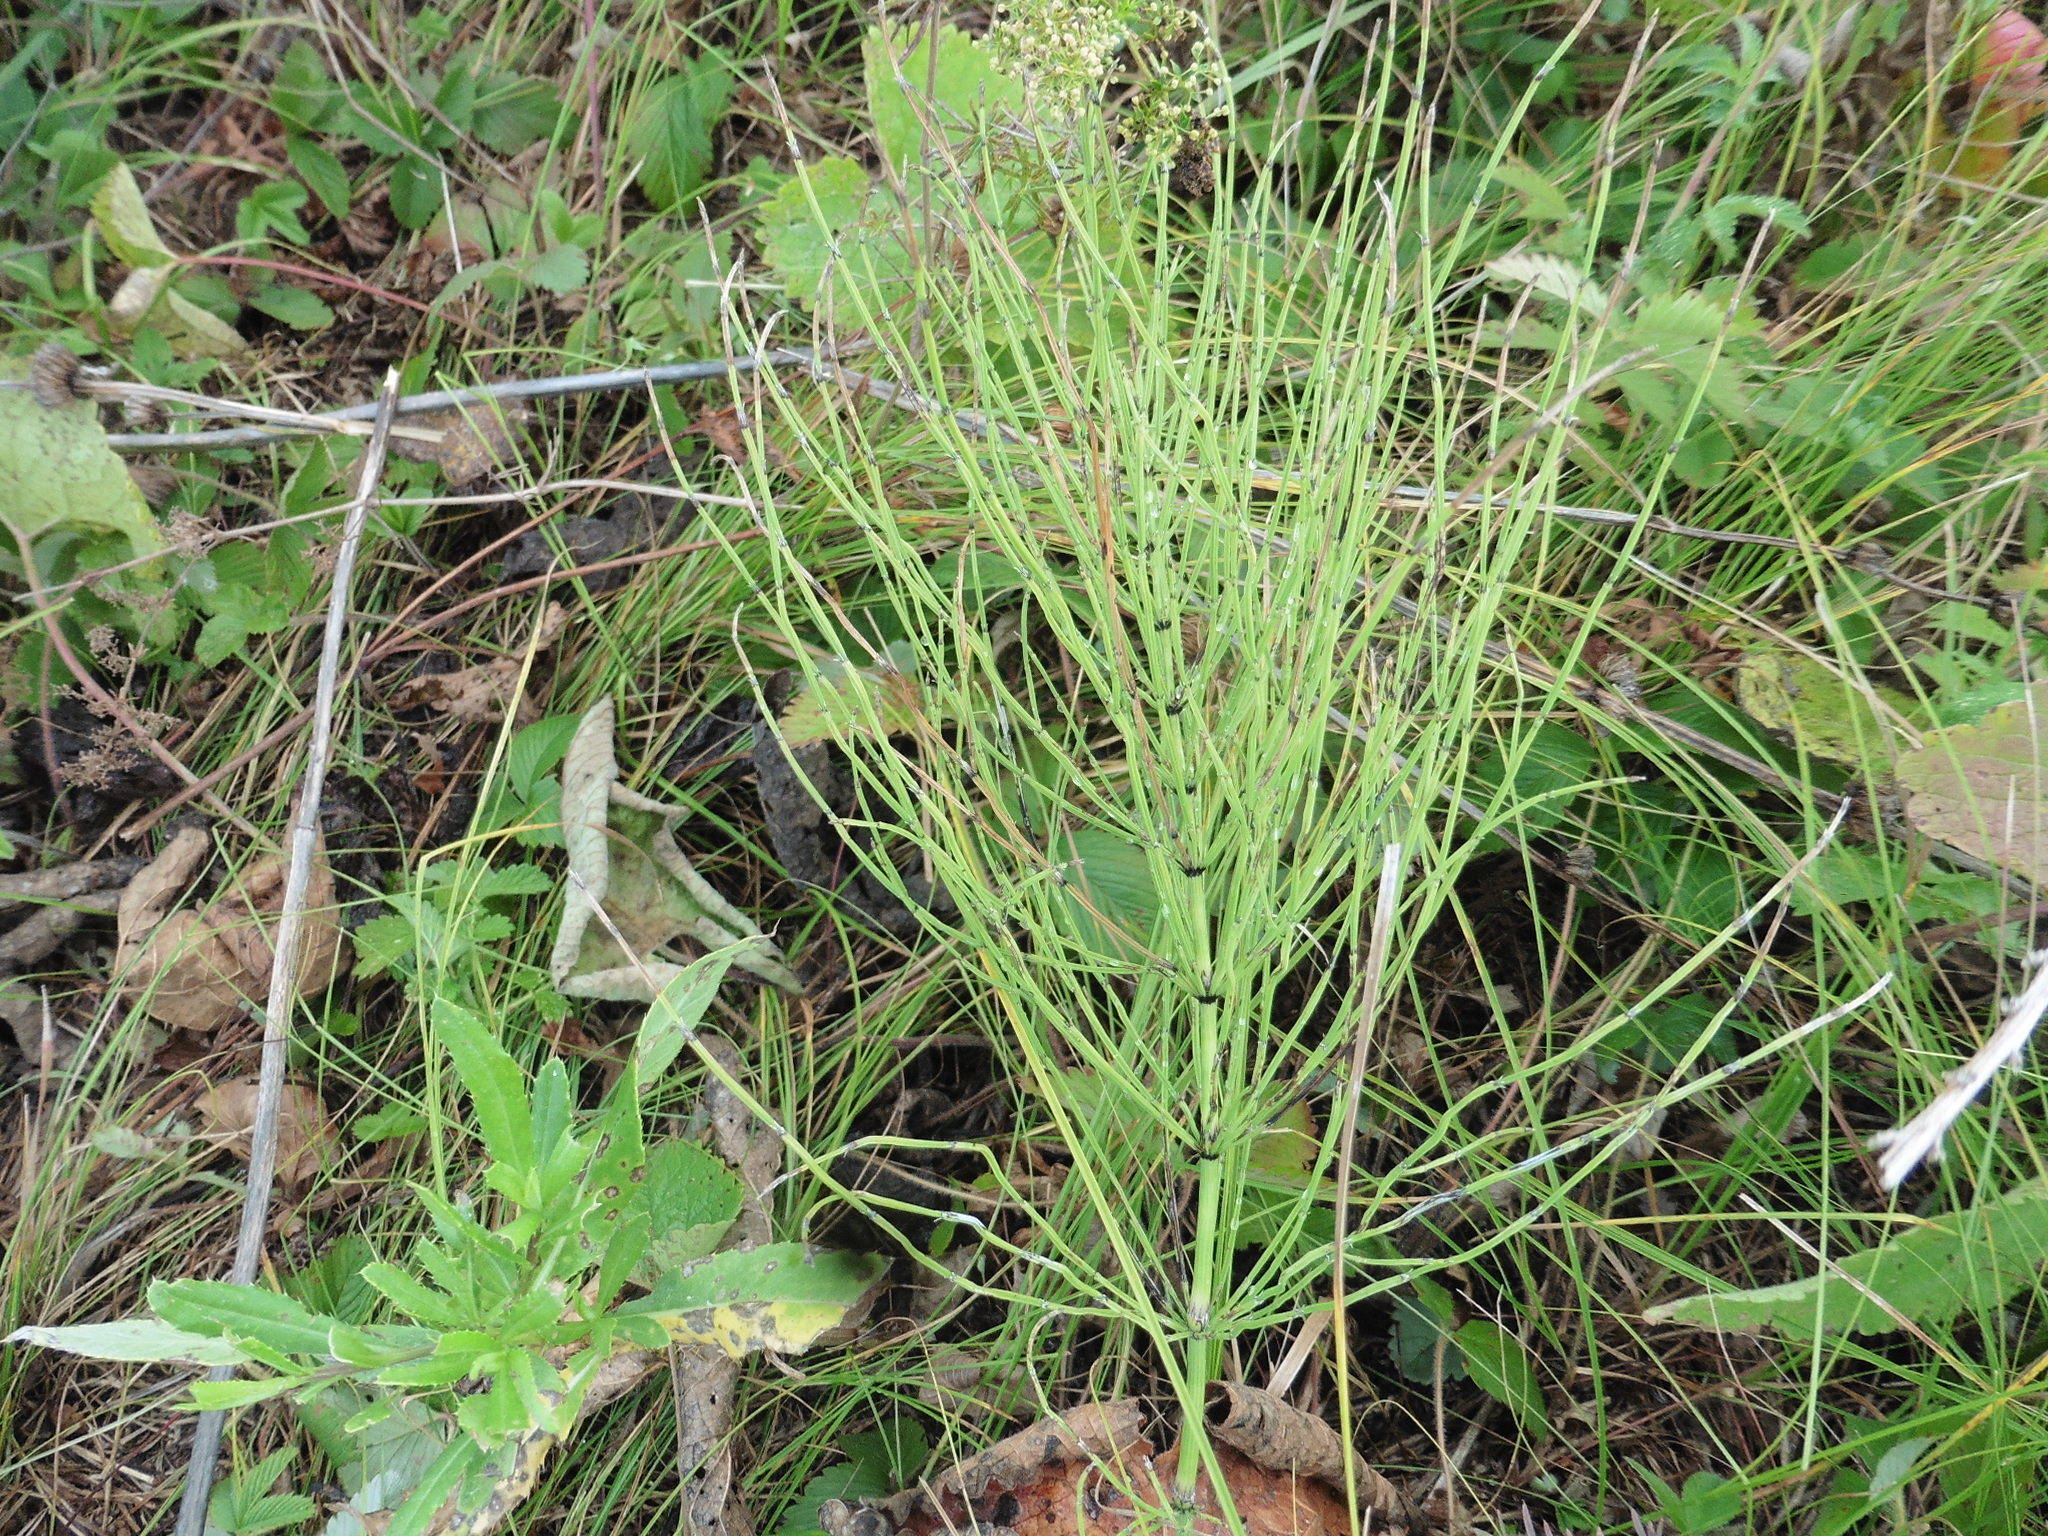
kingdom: Plantae
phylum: Tracheophyta
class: Polypodiopsida
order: Equisetales
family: Equisetaceae
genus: Equisetum
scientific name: Equisetum arvense
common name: Field horsetail
